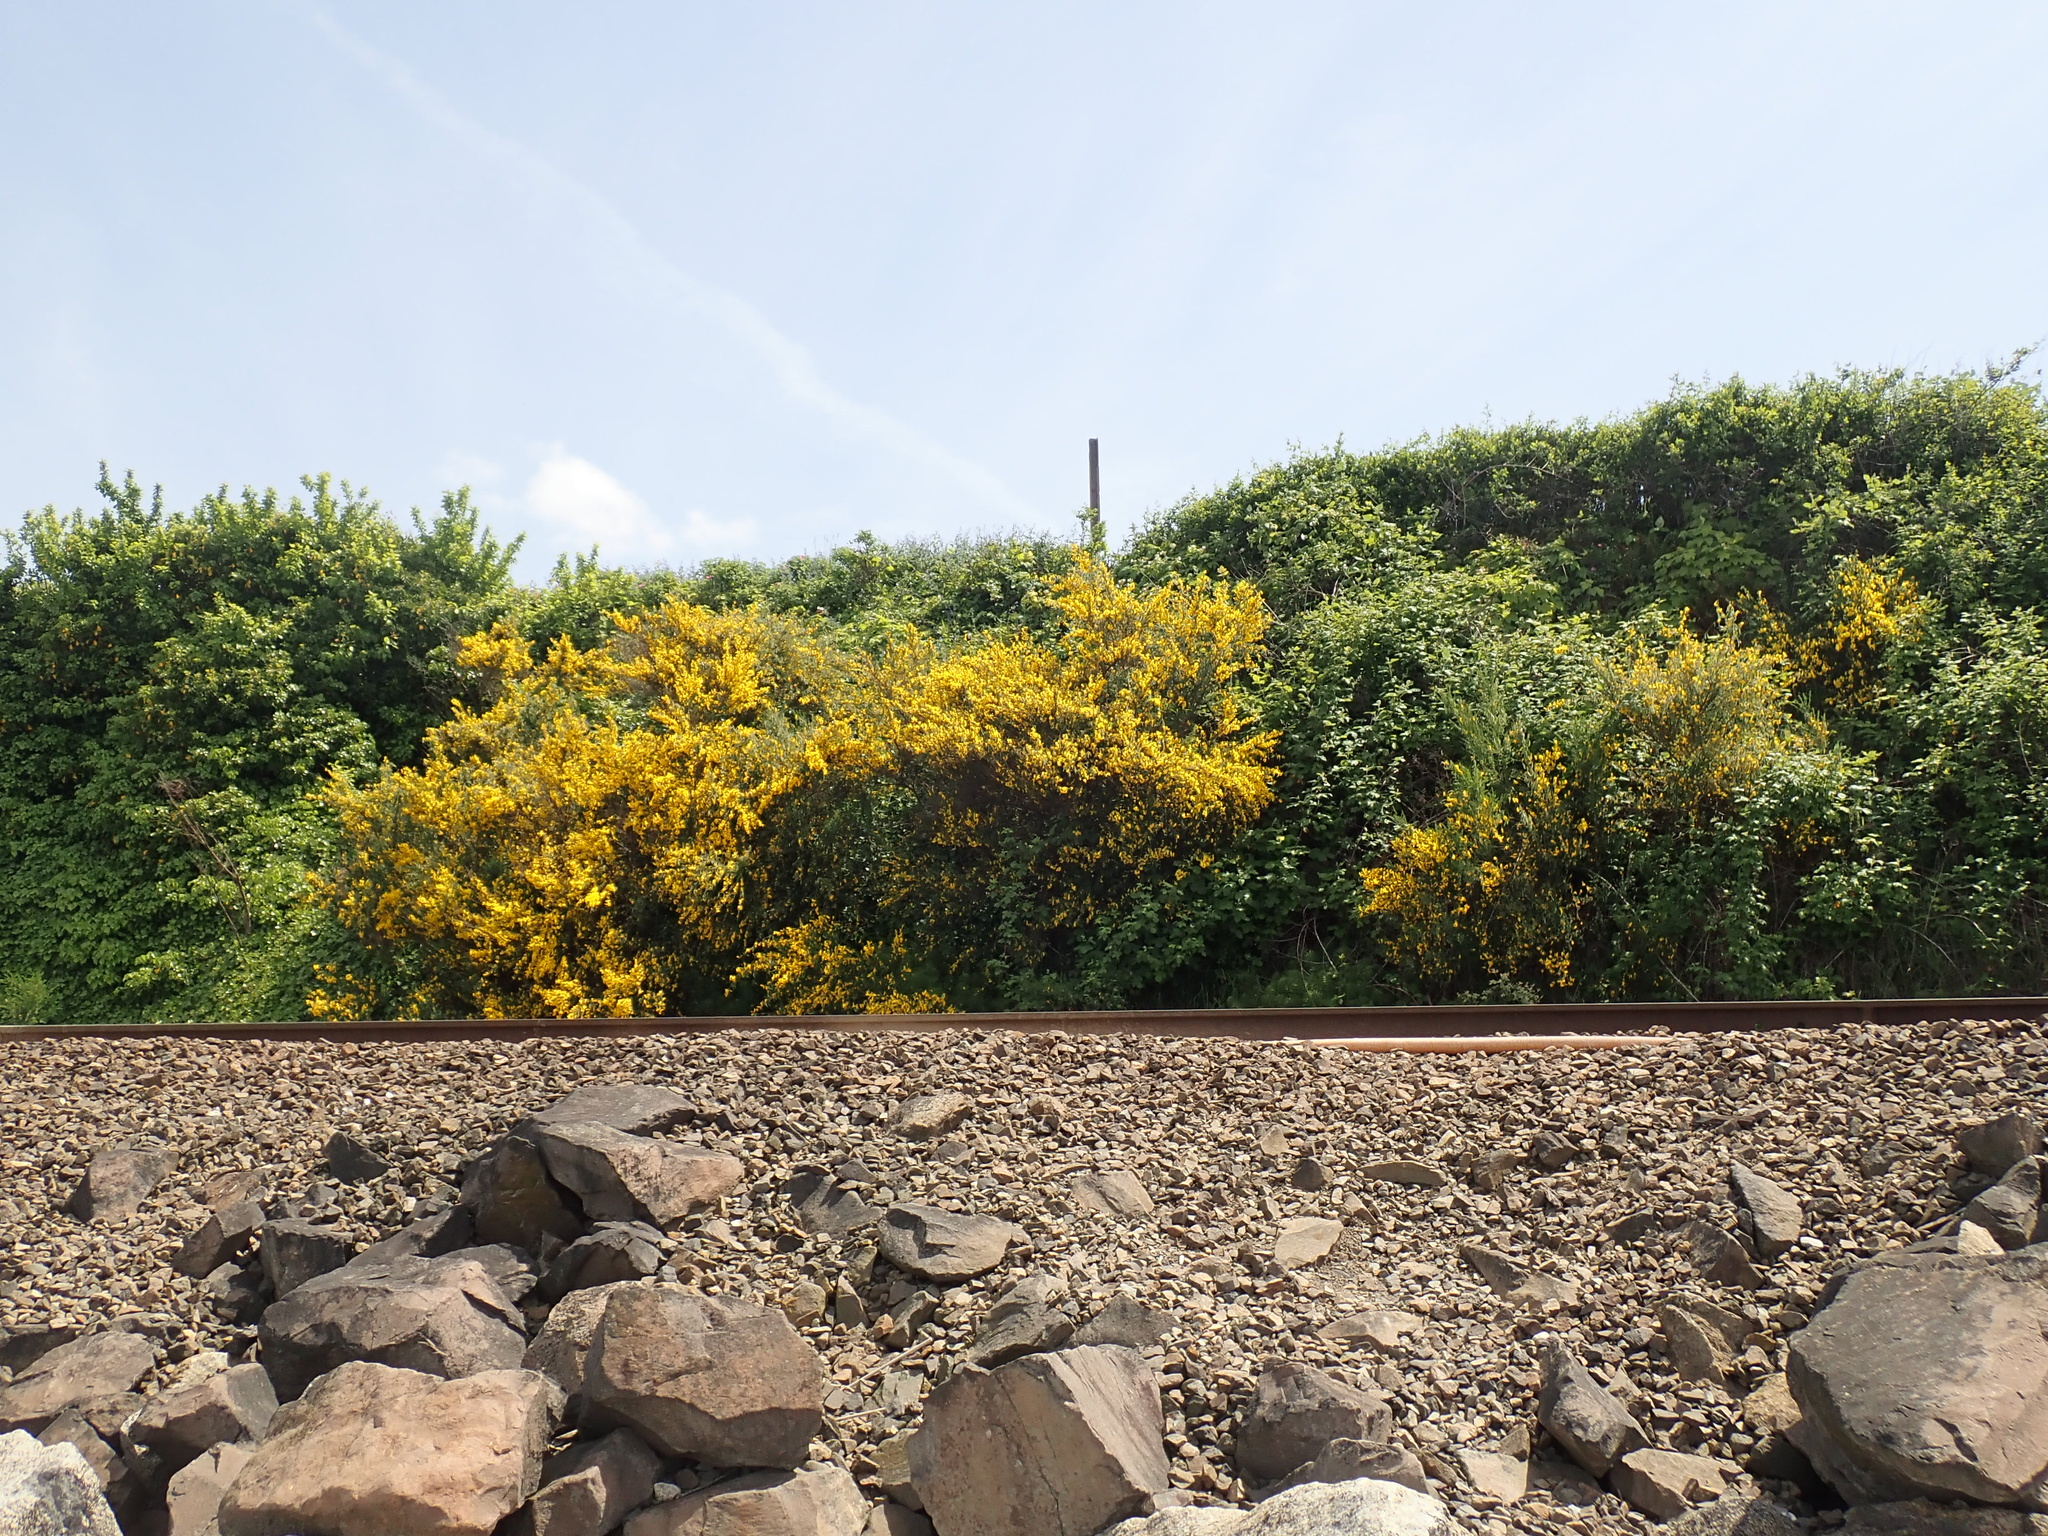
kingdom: Plantae
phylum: Tracheophyta
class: Magnoliopsida
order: Fabales
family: Fabaceae
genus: Cytisus
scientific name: Cytisus scoparius
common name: Scotch broom
